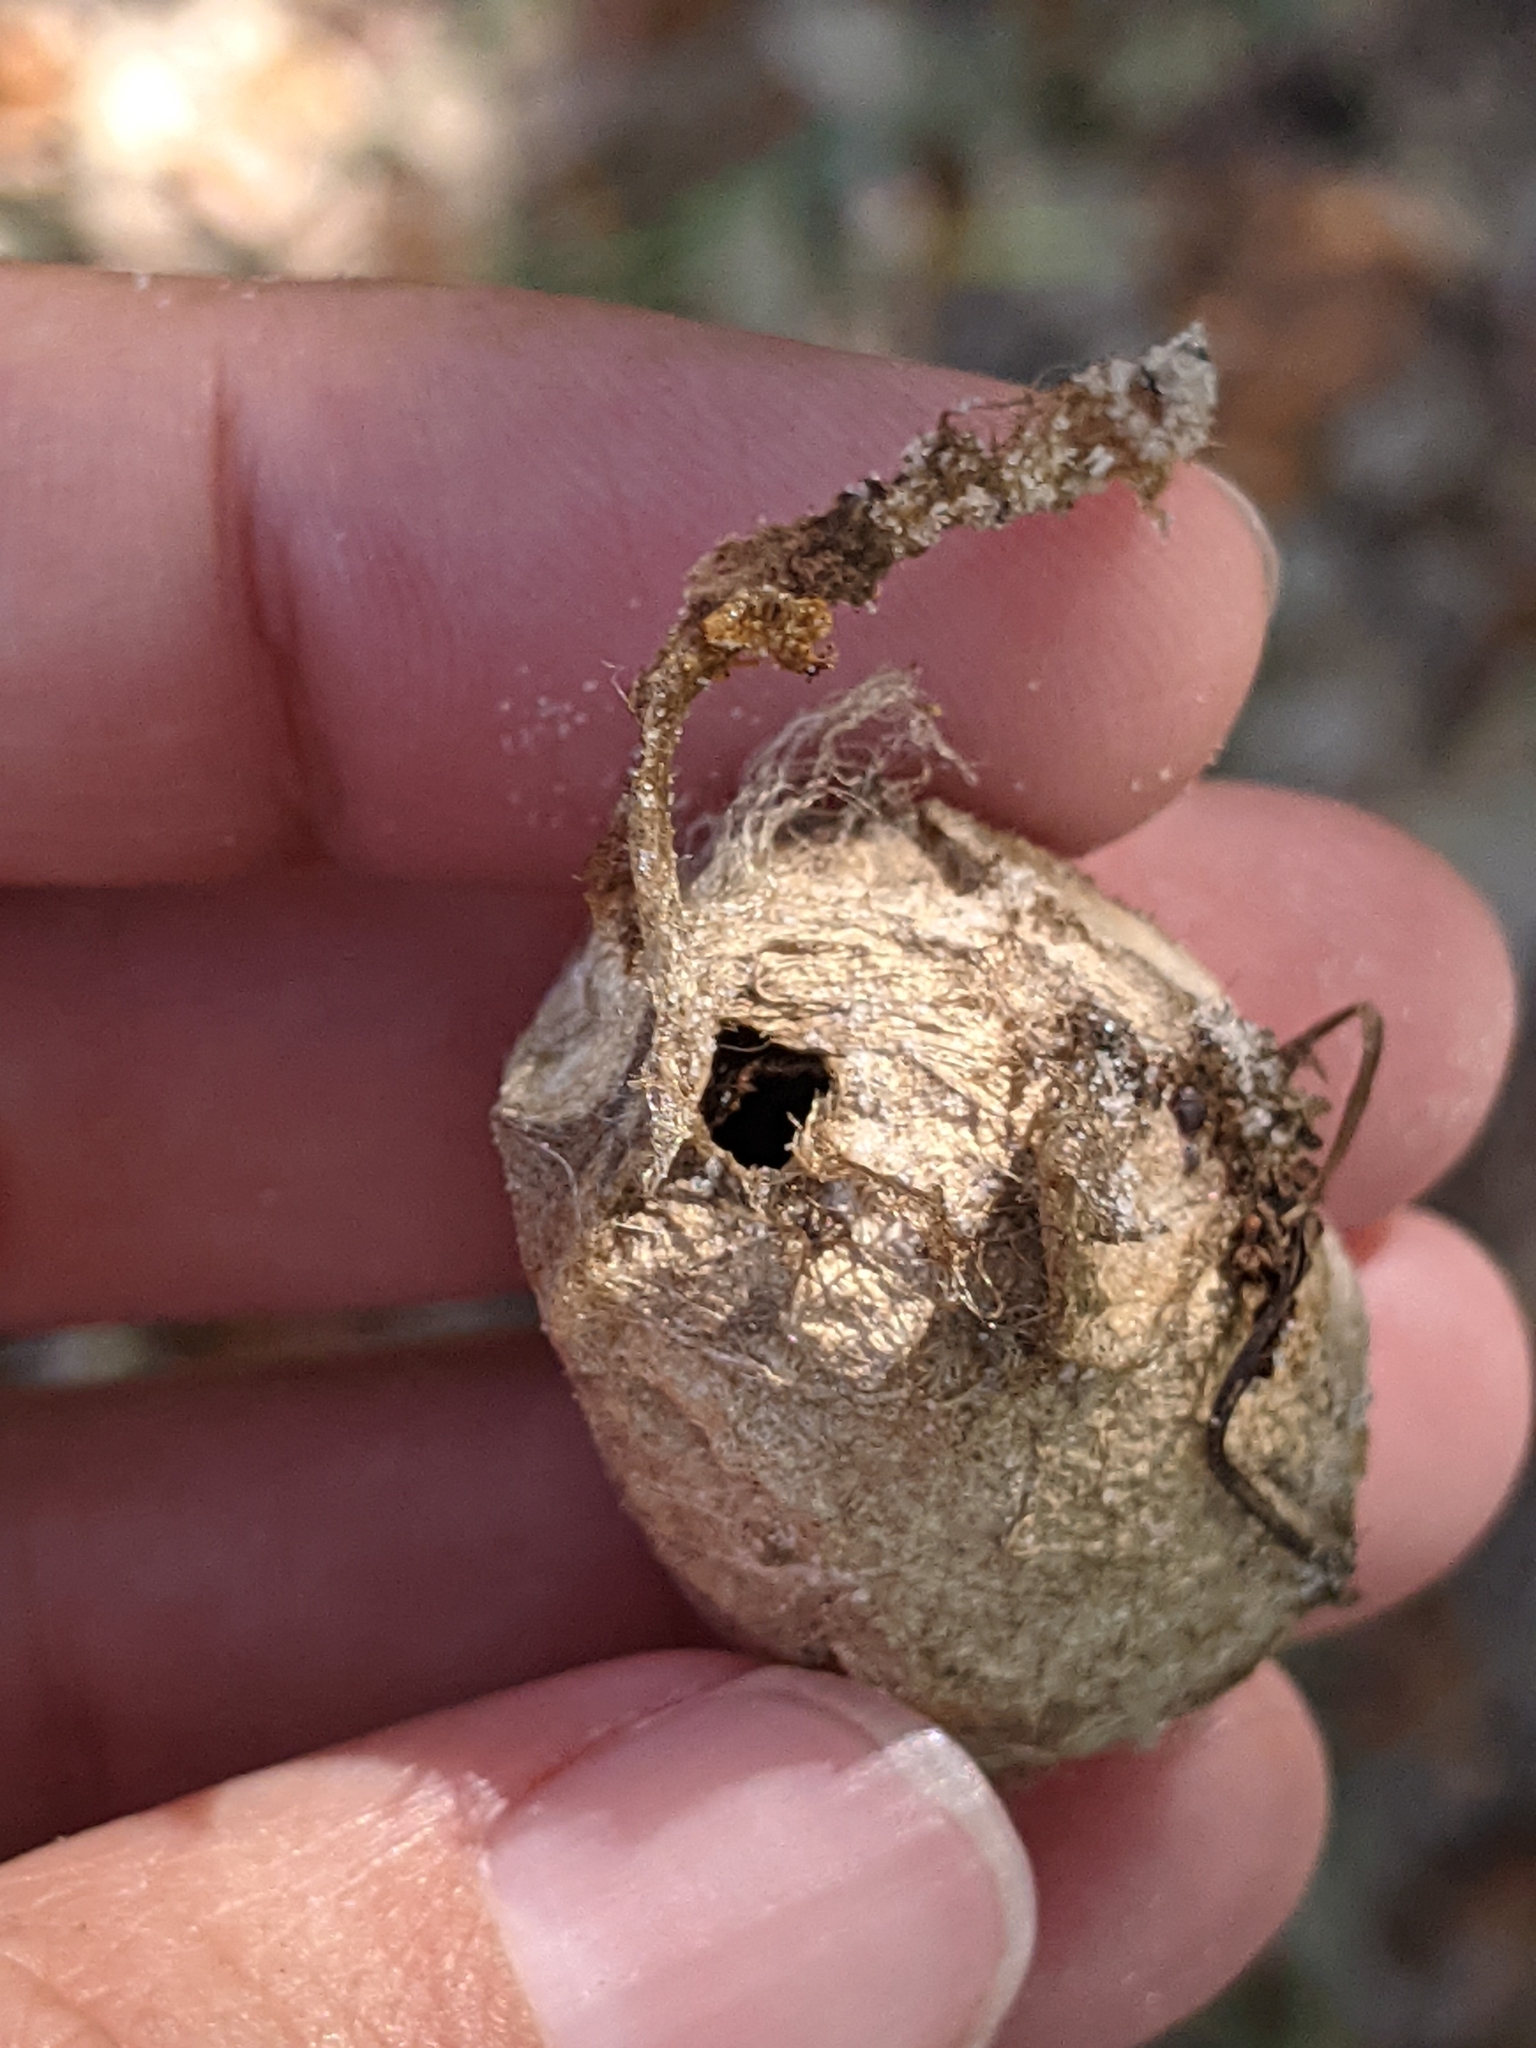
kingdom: Animalia
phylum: Arthropoda
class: Insecta
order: Lepidoptera
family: Saturniidae
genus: Antheraea
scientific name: Antheraea polyphemus
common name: Polyphemus moth
